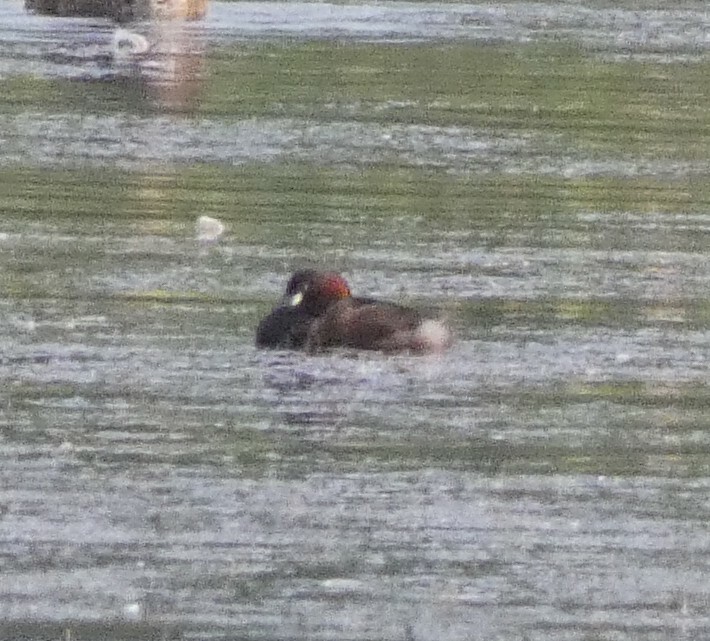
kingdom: Animalia
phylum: Chordata
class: Aves
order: Podicipediformes
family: Podicipedidae
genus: Tachybaptus
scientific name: Tachybaptus ruficollis
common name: Little grebe
